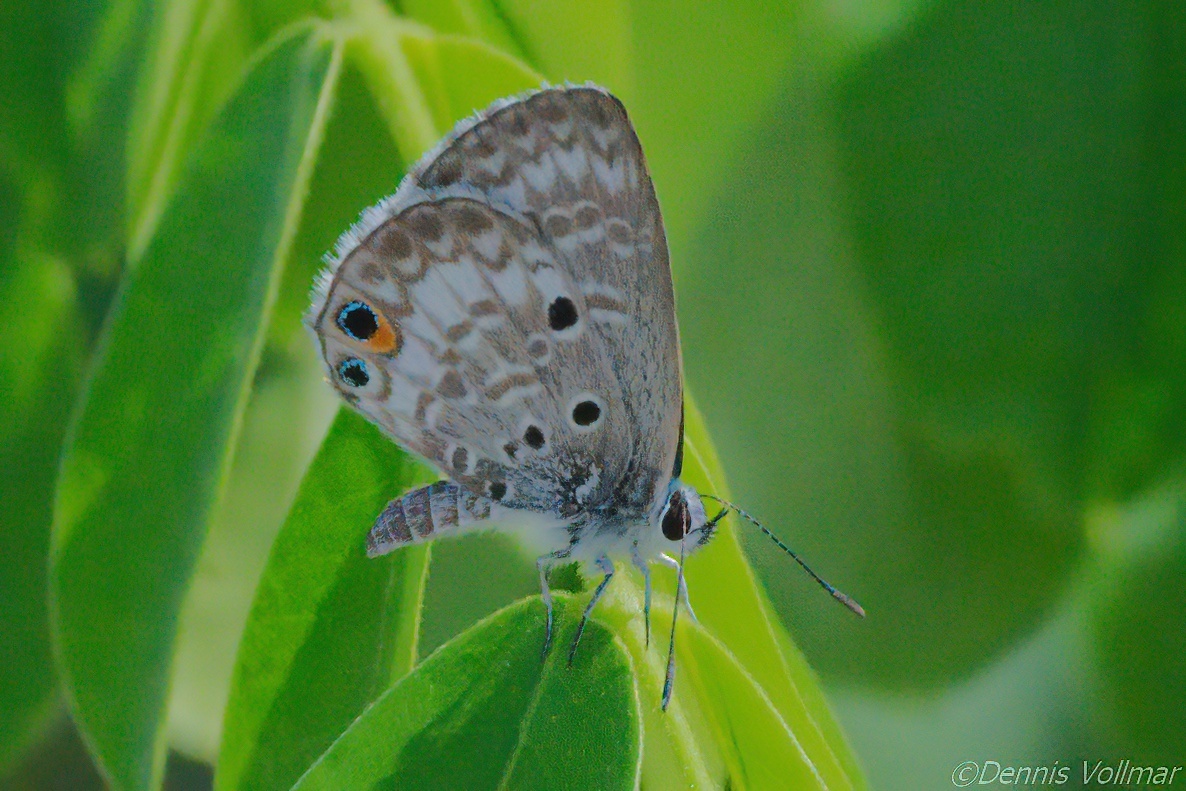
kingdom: Animalia
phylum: Arthropoda
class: Insecta
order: Lepidoptera
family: Lycaenidae
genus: Cyclargus
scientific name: Cyclargus thomasi
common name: Miami blue
